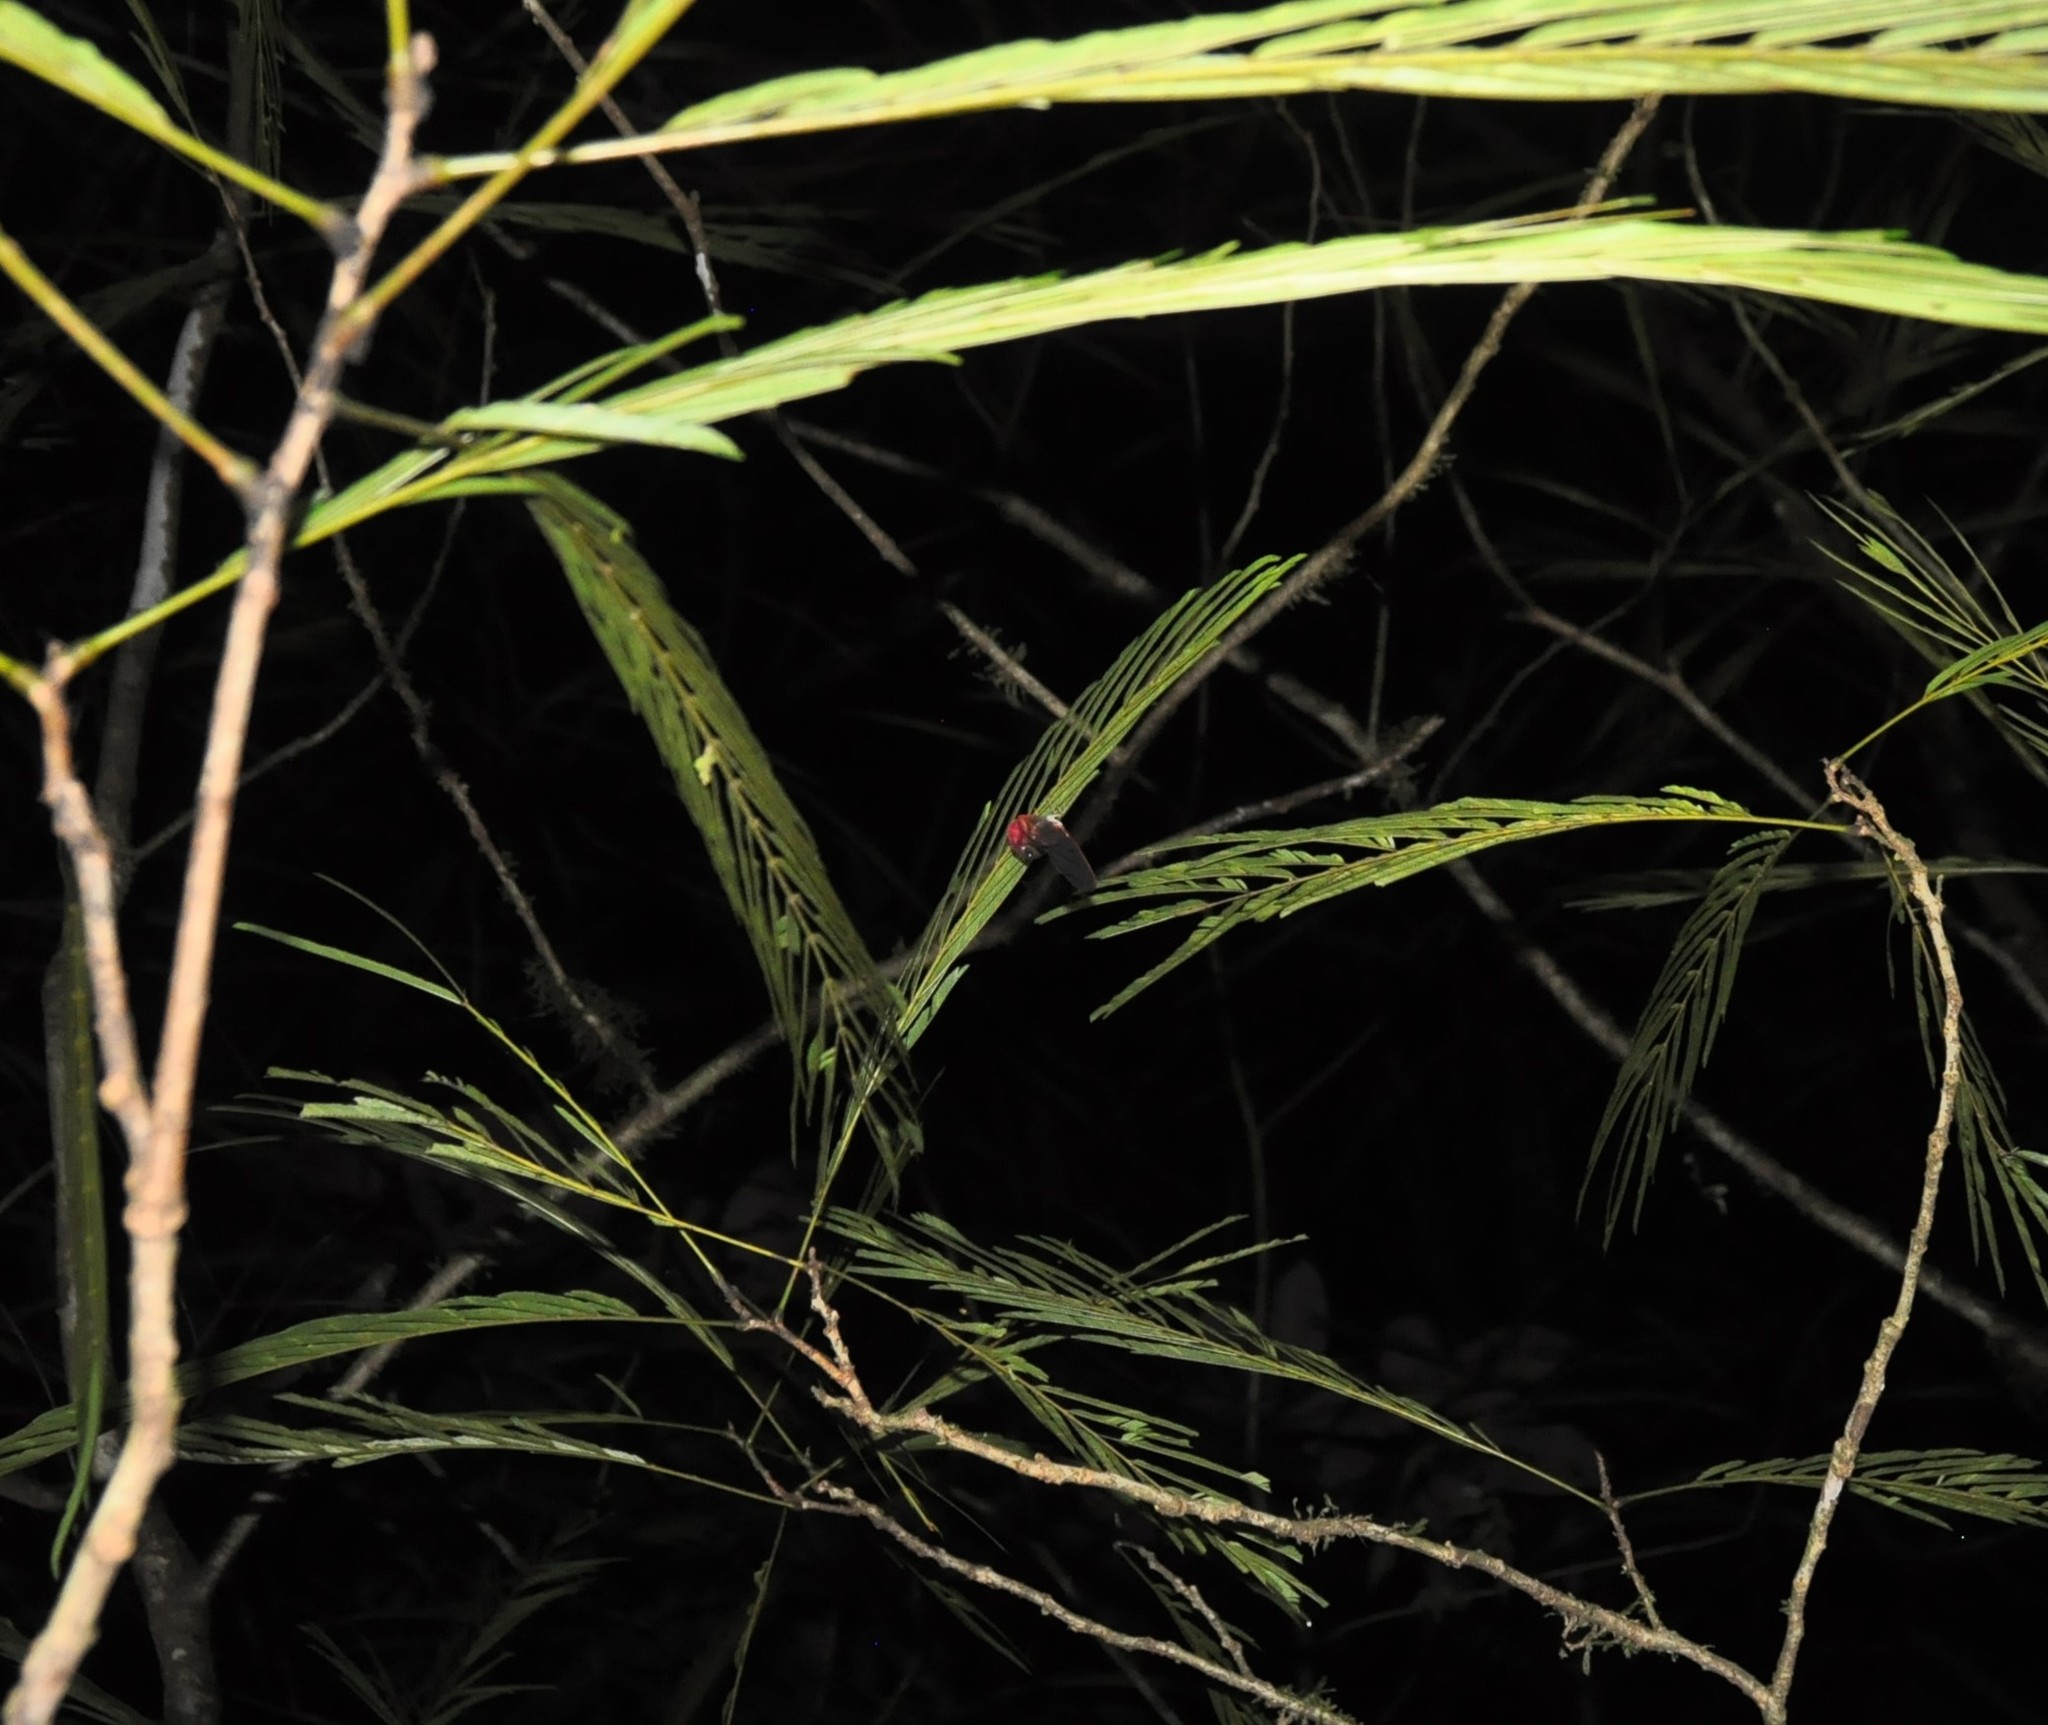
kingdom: Plantae
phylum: Tracheophyta
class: Magnoliopsida
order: Fabales
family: Fabaceae
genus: Pentaclethra
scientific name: Pentaclethra macroloba
